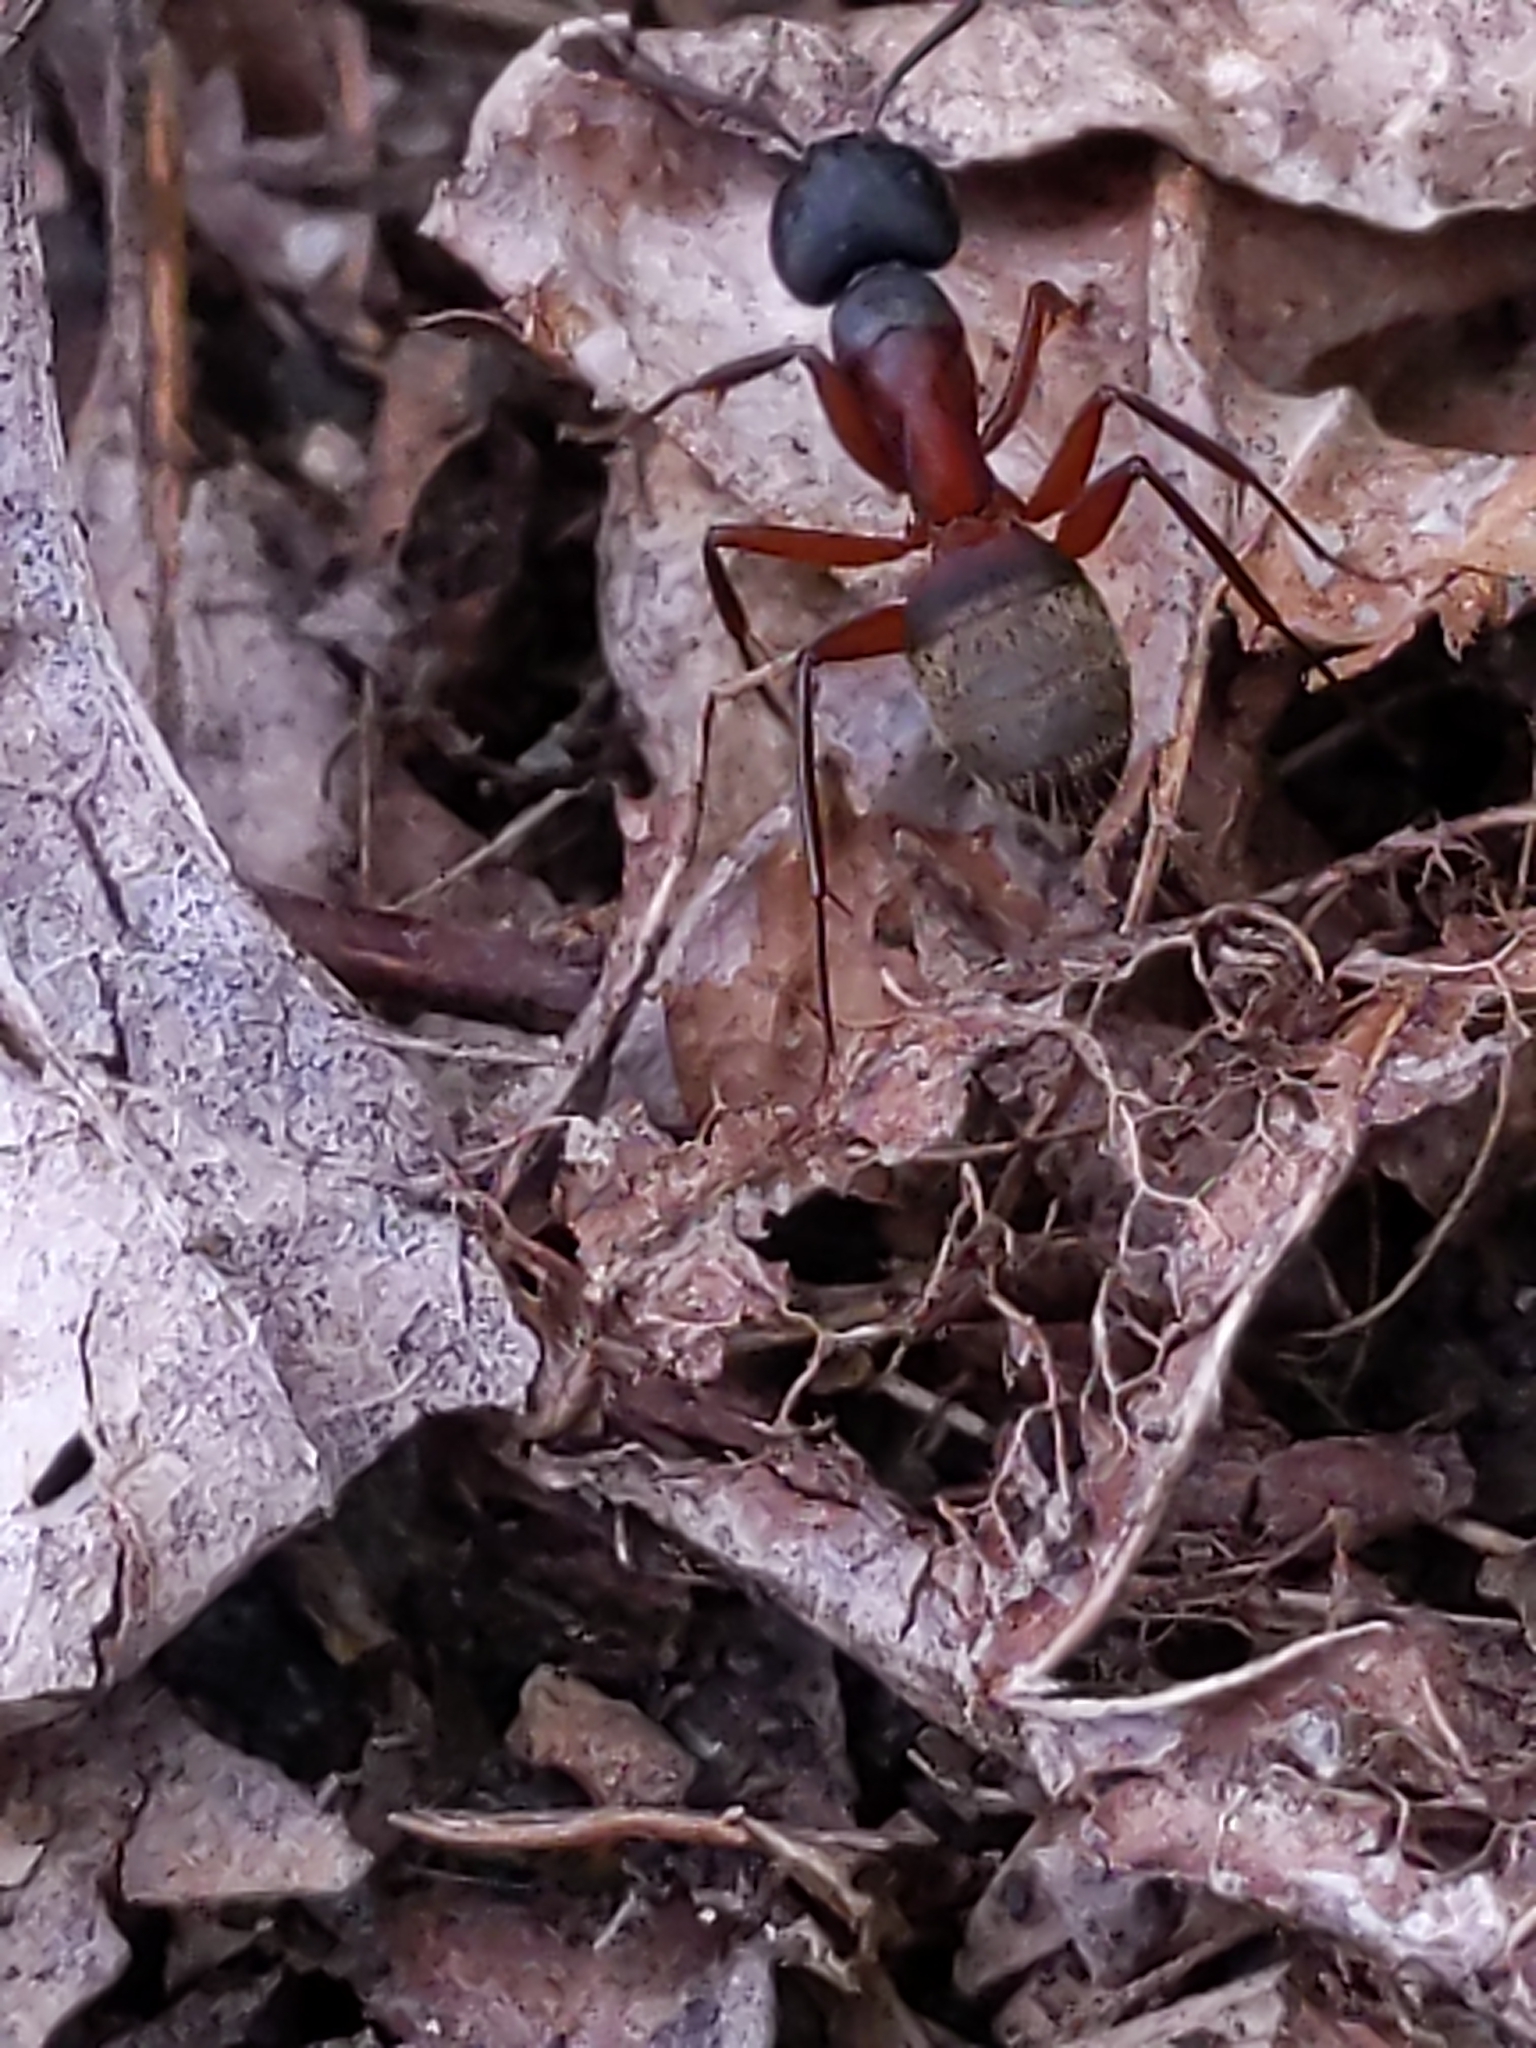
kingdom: Animalia
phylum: Arthropoda
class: Insecta
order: Hymenoptera
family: Formicidae
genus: Camponotus
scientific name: Camponotus chromaiodes
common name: Red carpenter ant
